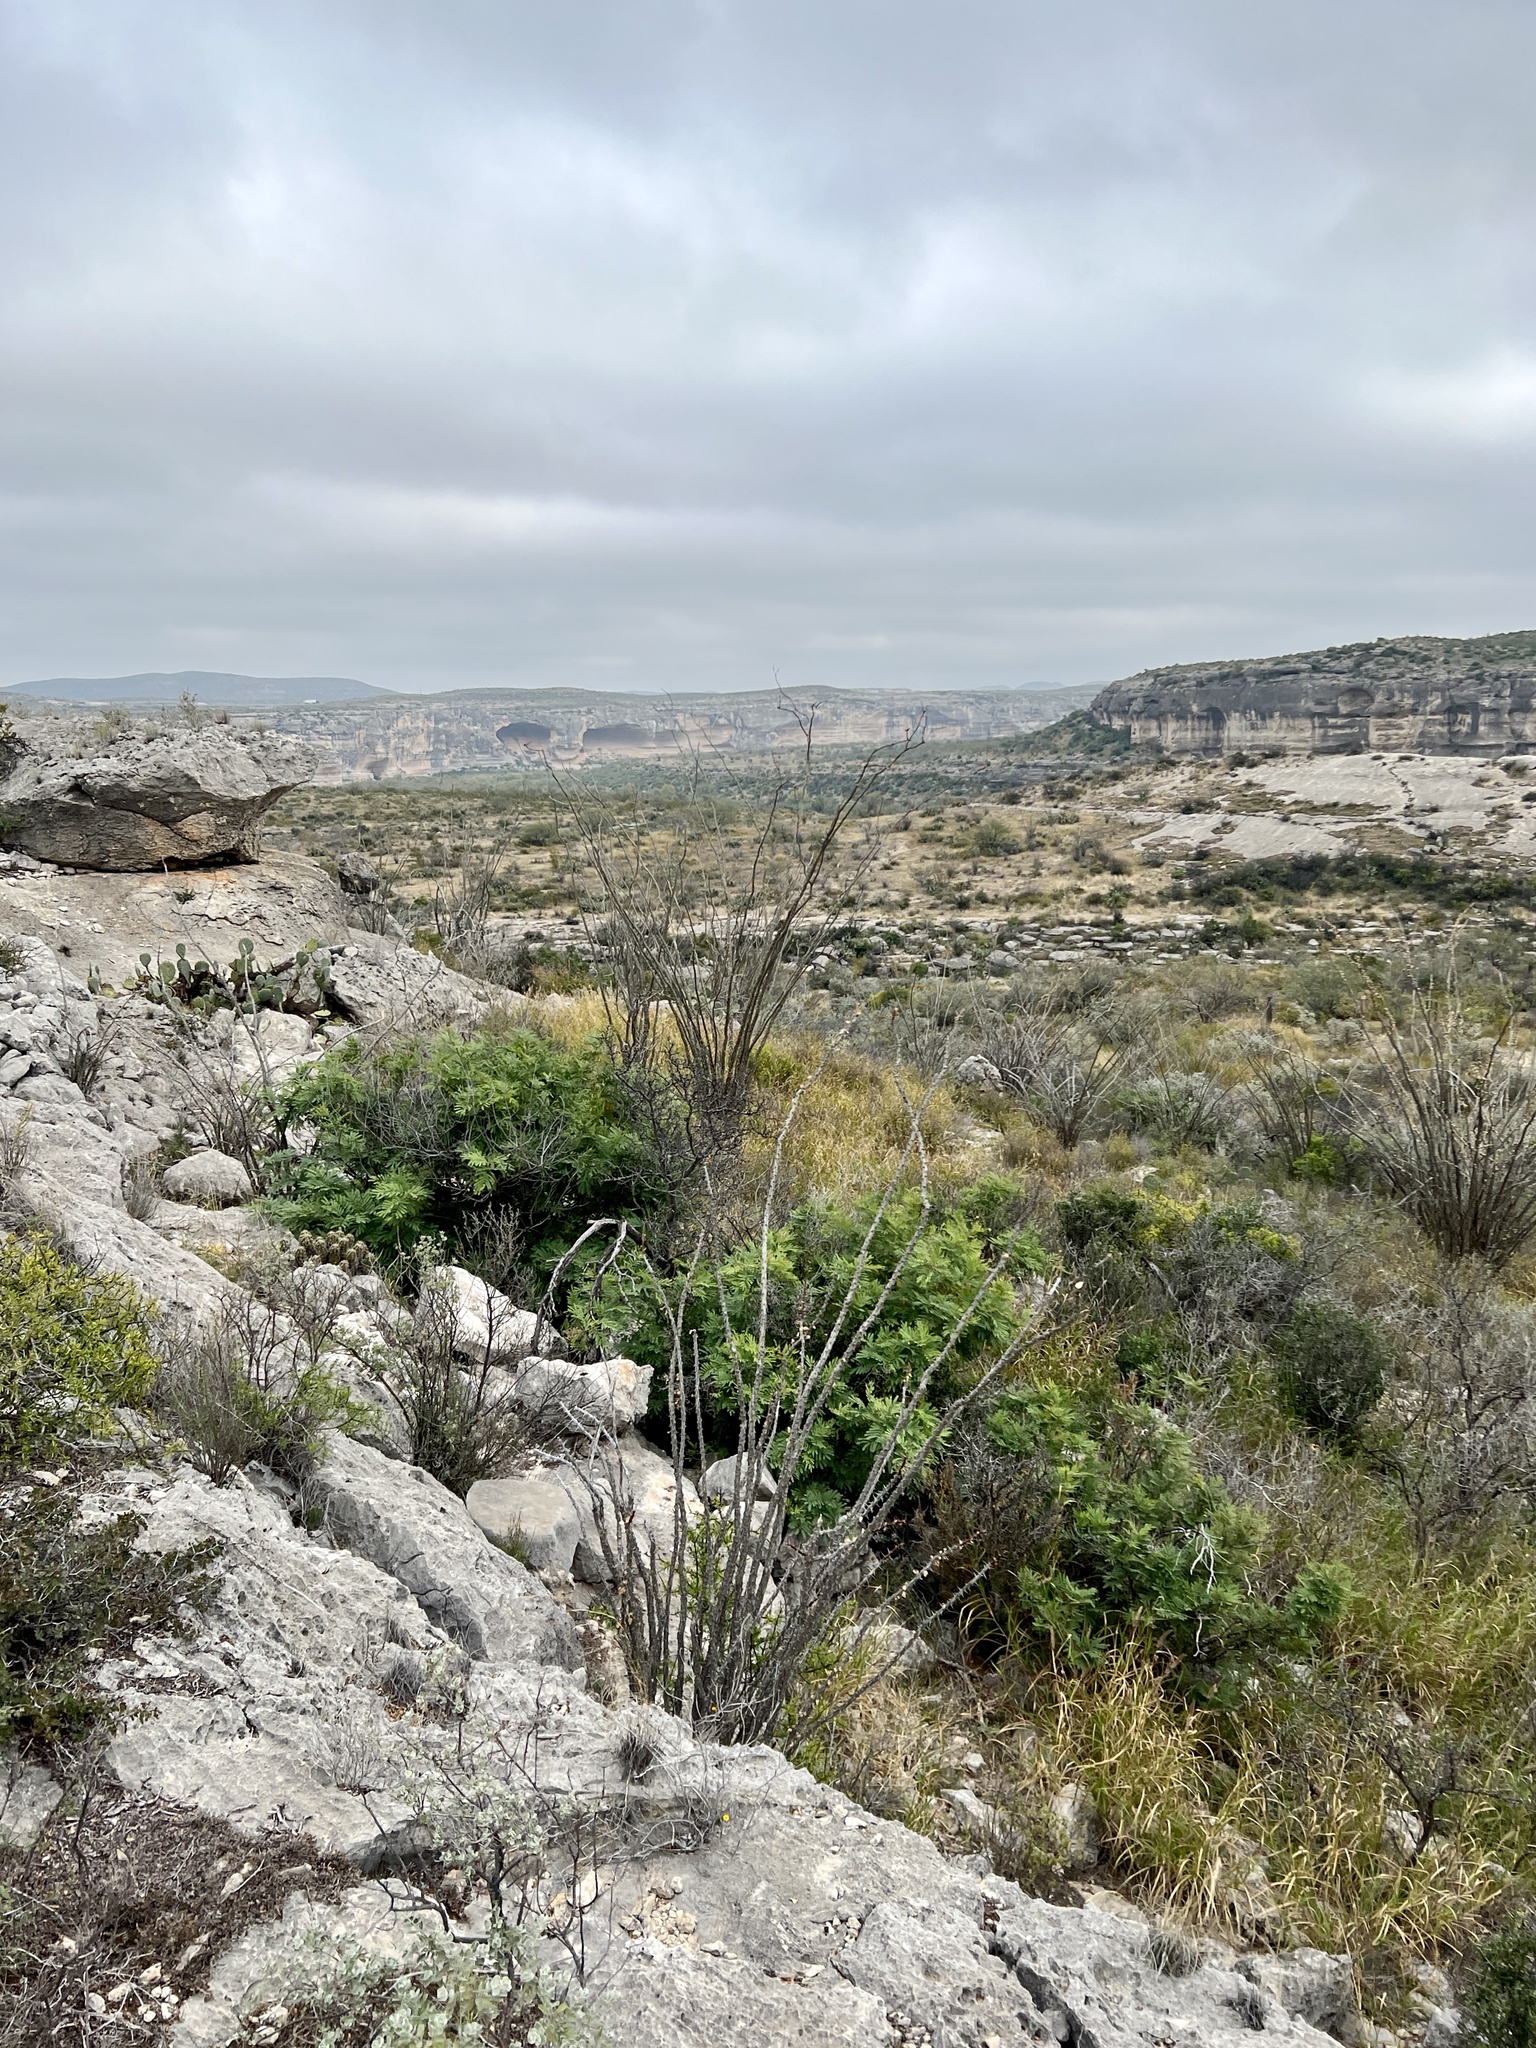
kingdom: Plantae
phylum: Tracheophyta
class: Magnoliopsida
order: Ericales
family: Fouquieriaceae
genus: Fouquieria
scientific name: Fouquieria splendens
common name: Vine-cactus
